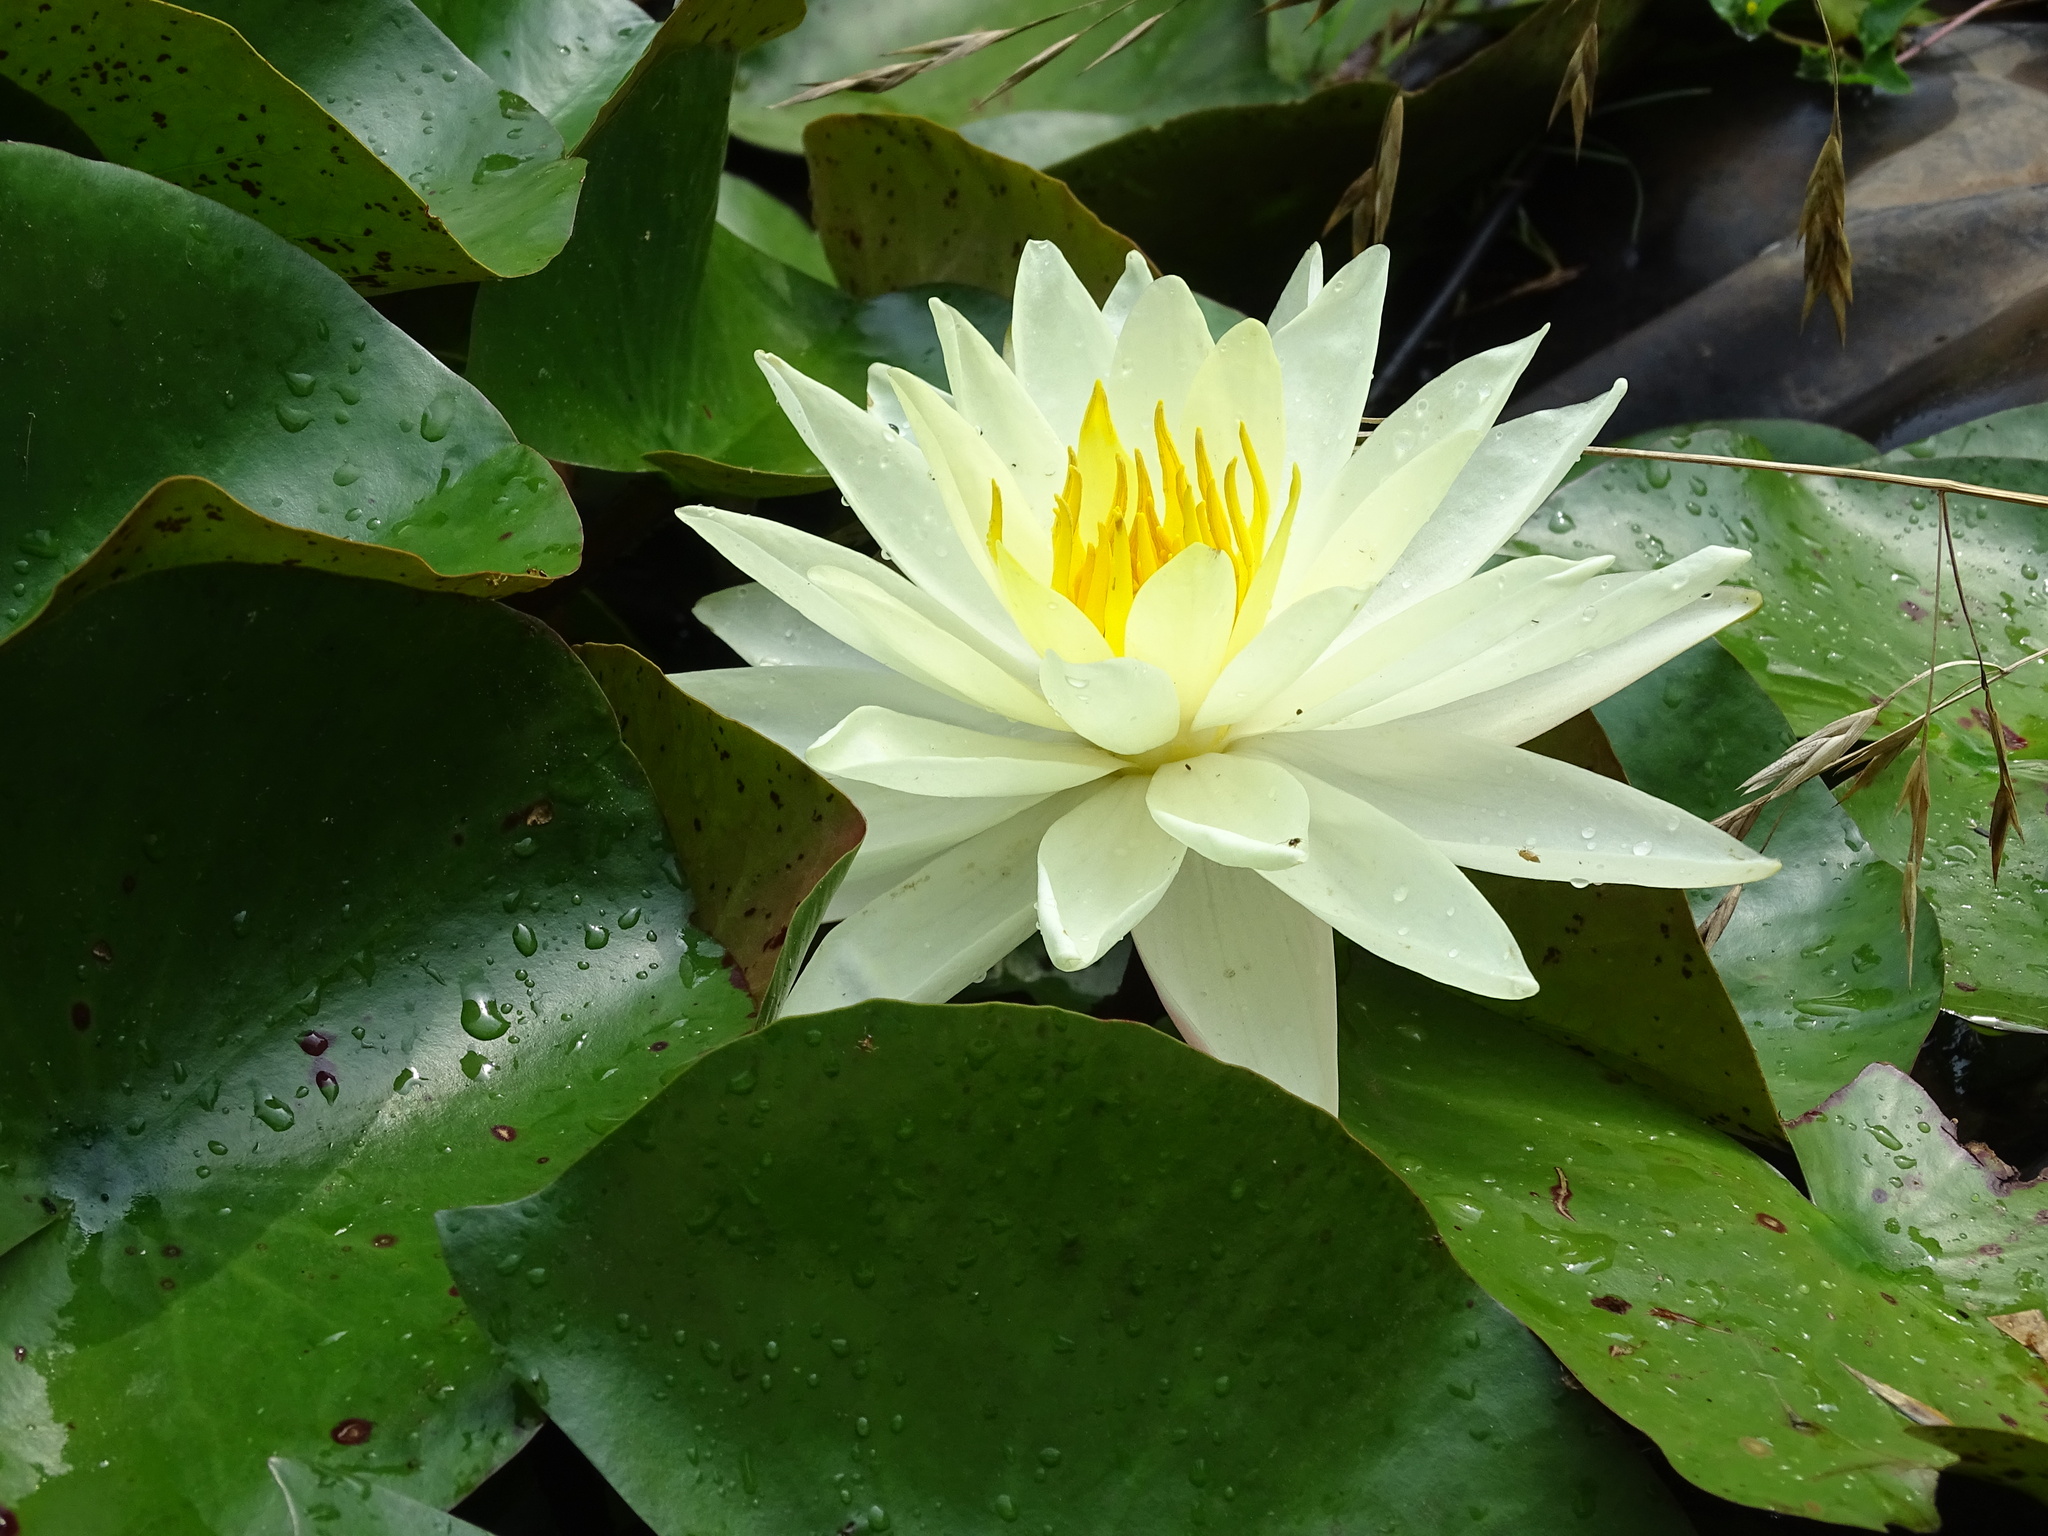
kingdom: Plantae
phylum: Tracheophyta
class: Magnoliopsida
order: Nymphaeales
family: Nymphaeaceae
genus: Nymphaea
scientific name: Nymphaea odorata
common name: Fragrant water-lily
